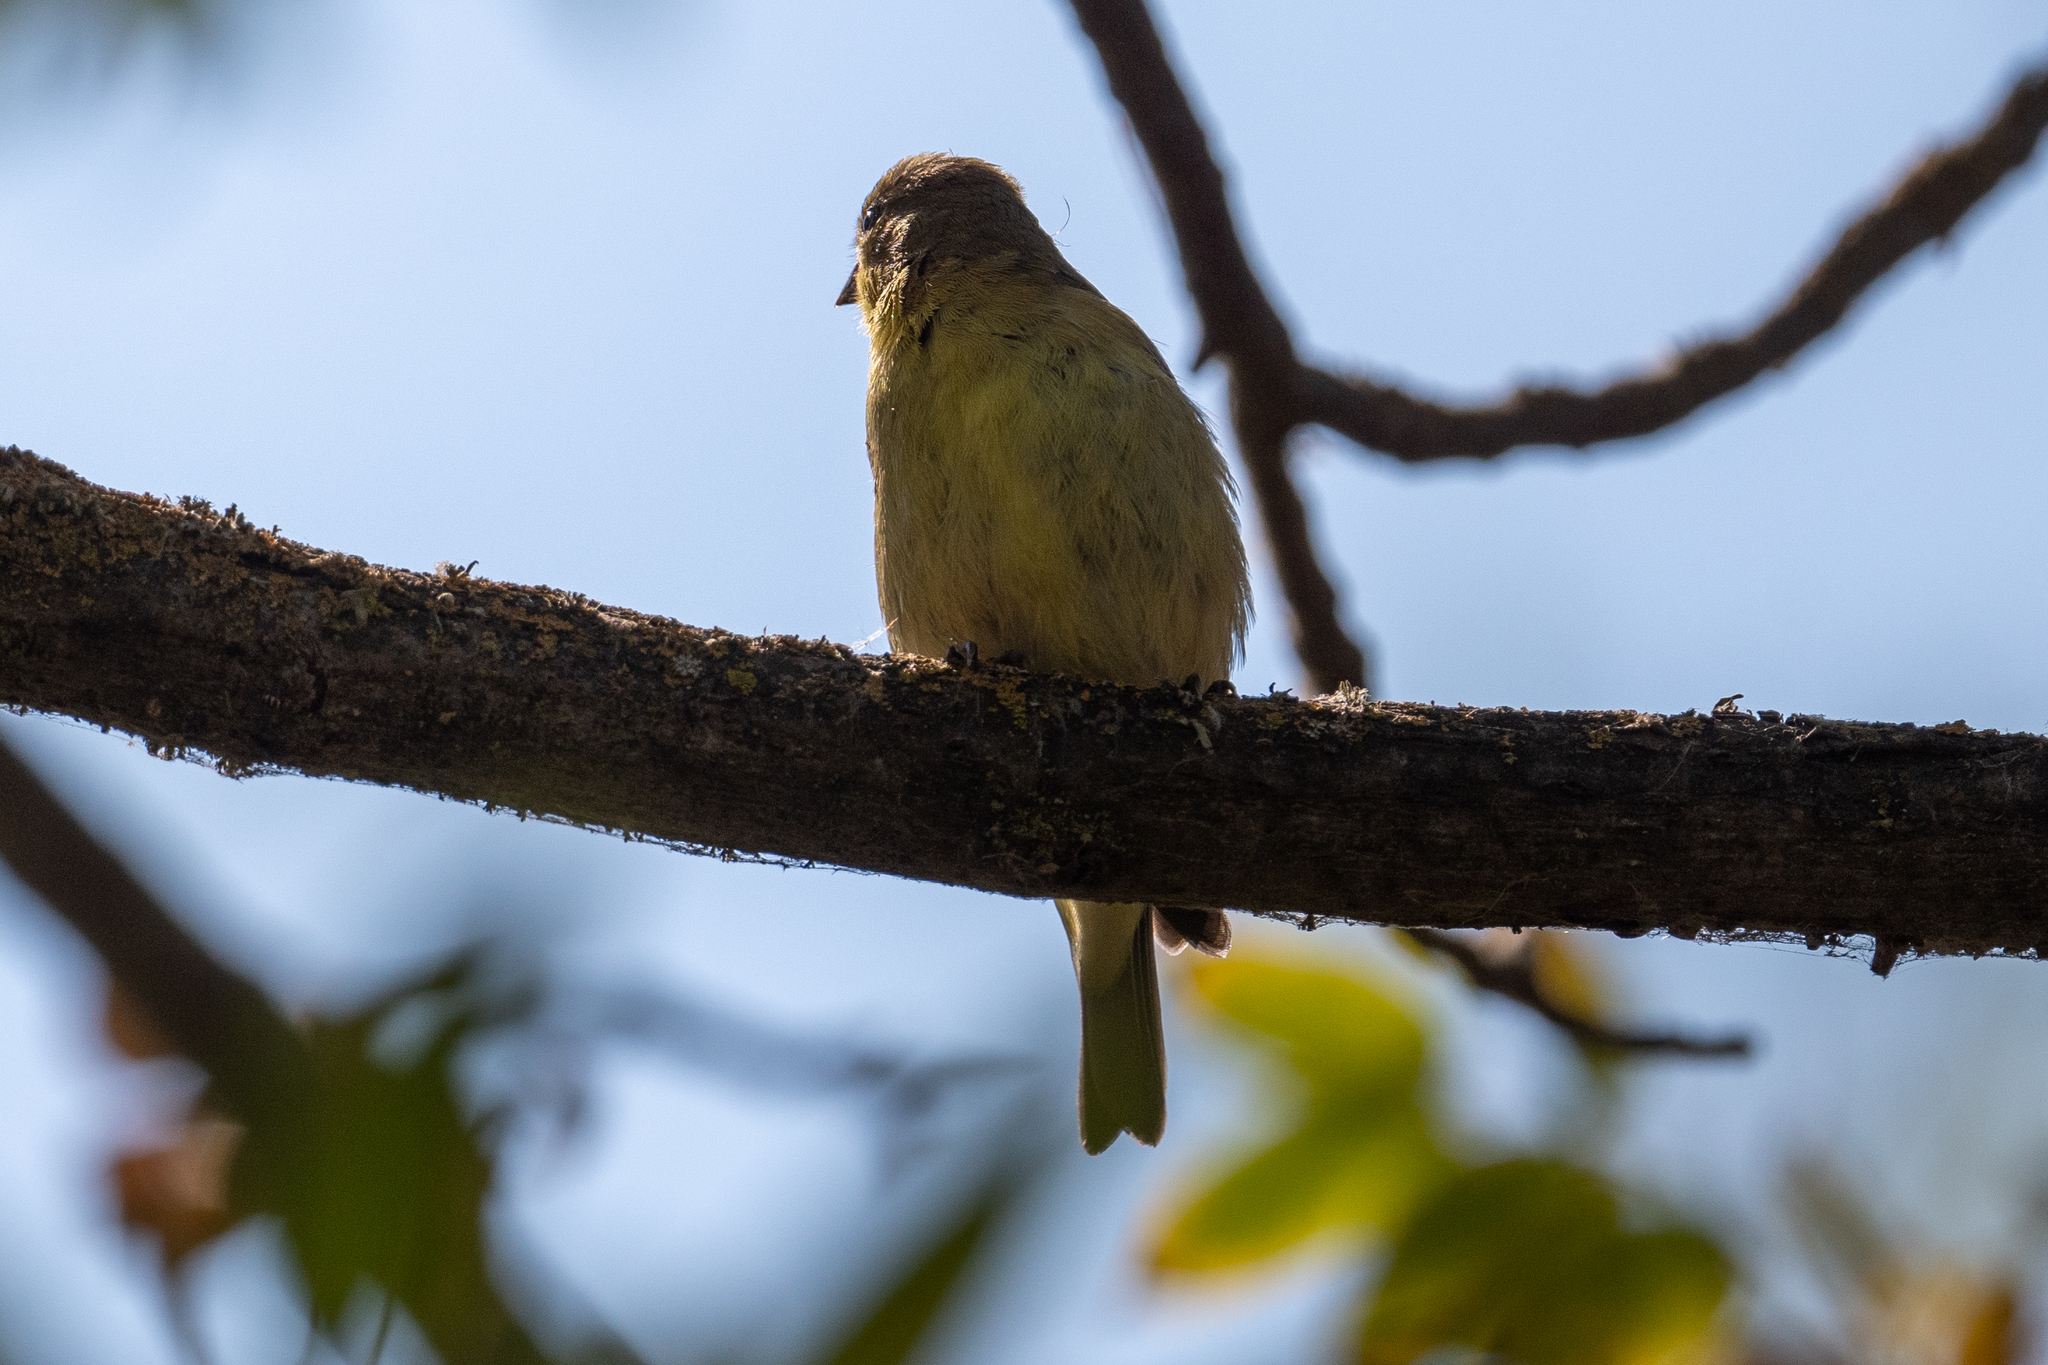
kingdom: Animalia
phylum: Chordata
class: Aves
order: Passeriformes
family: Fringillidae
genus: Spinus
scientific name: Spinus psaltria
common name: Lesser goldfinch
